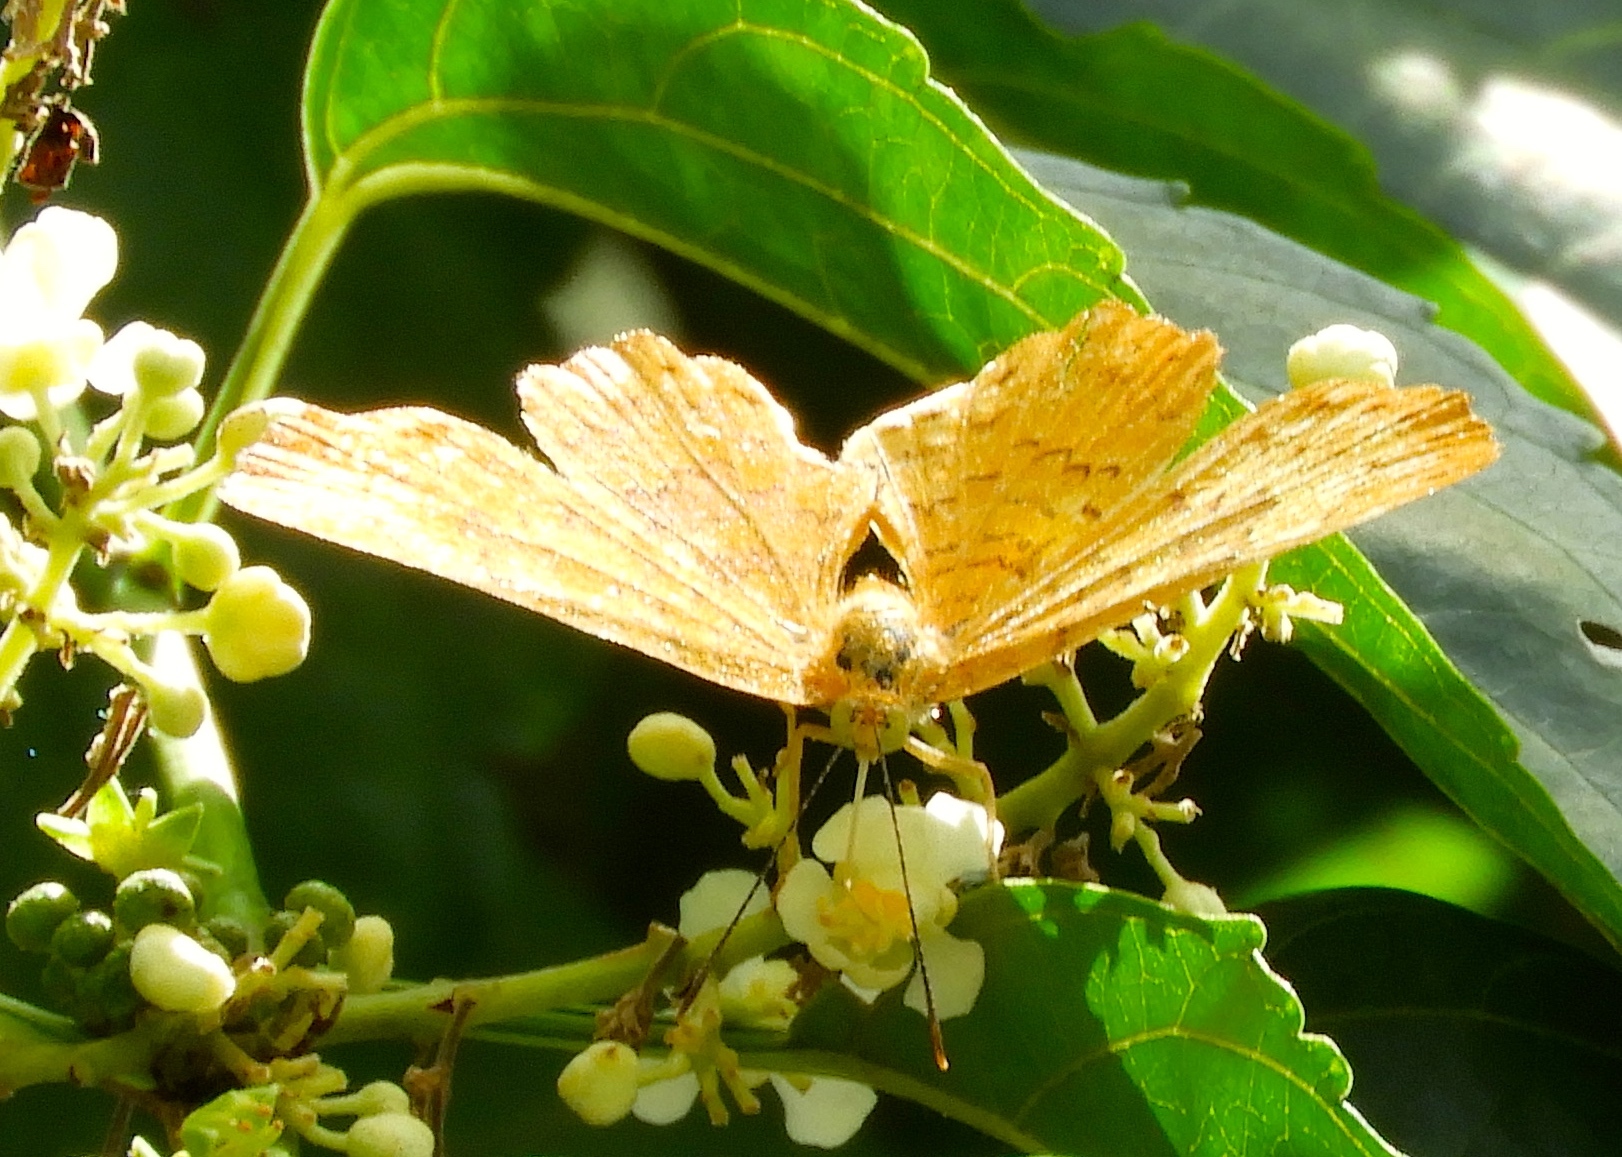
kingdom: Animalia
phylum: Arthropoda
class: Insecta
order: Lepidoptera
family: Lycaenidae
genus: Emesis
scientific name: Emesis
